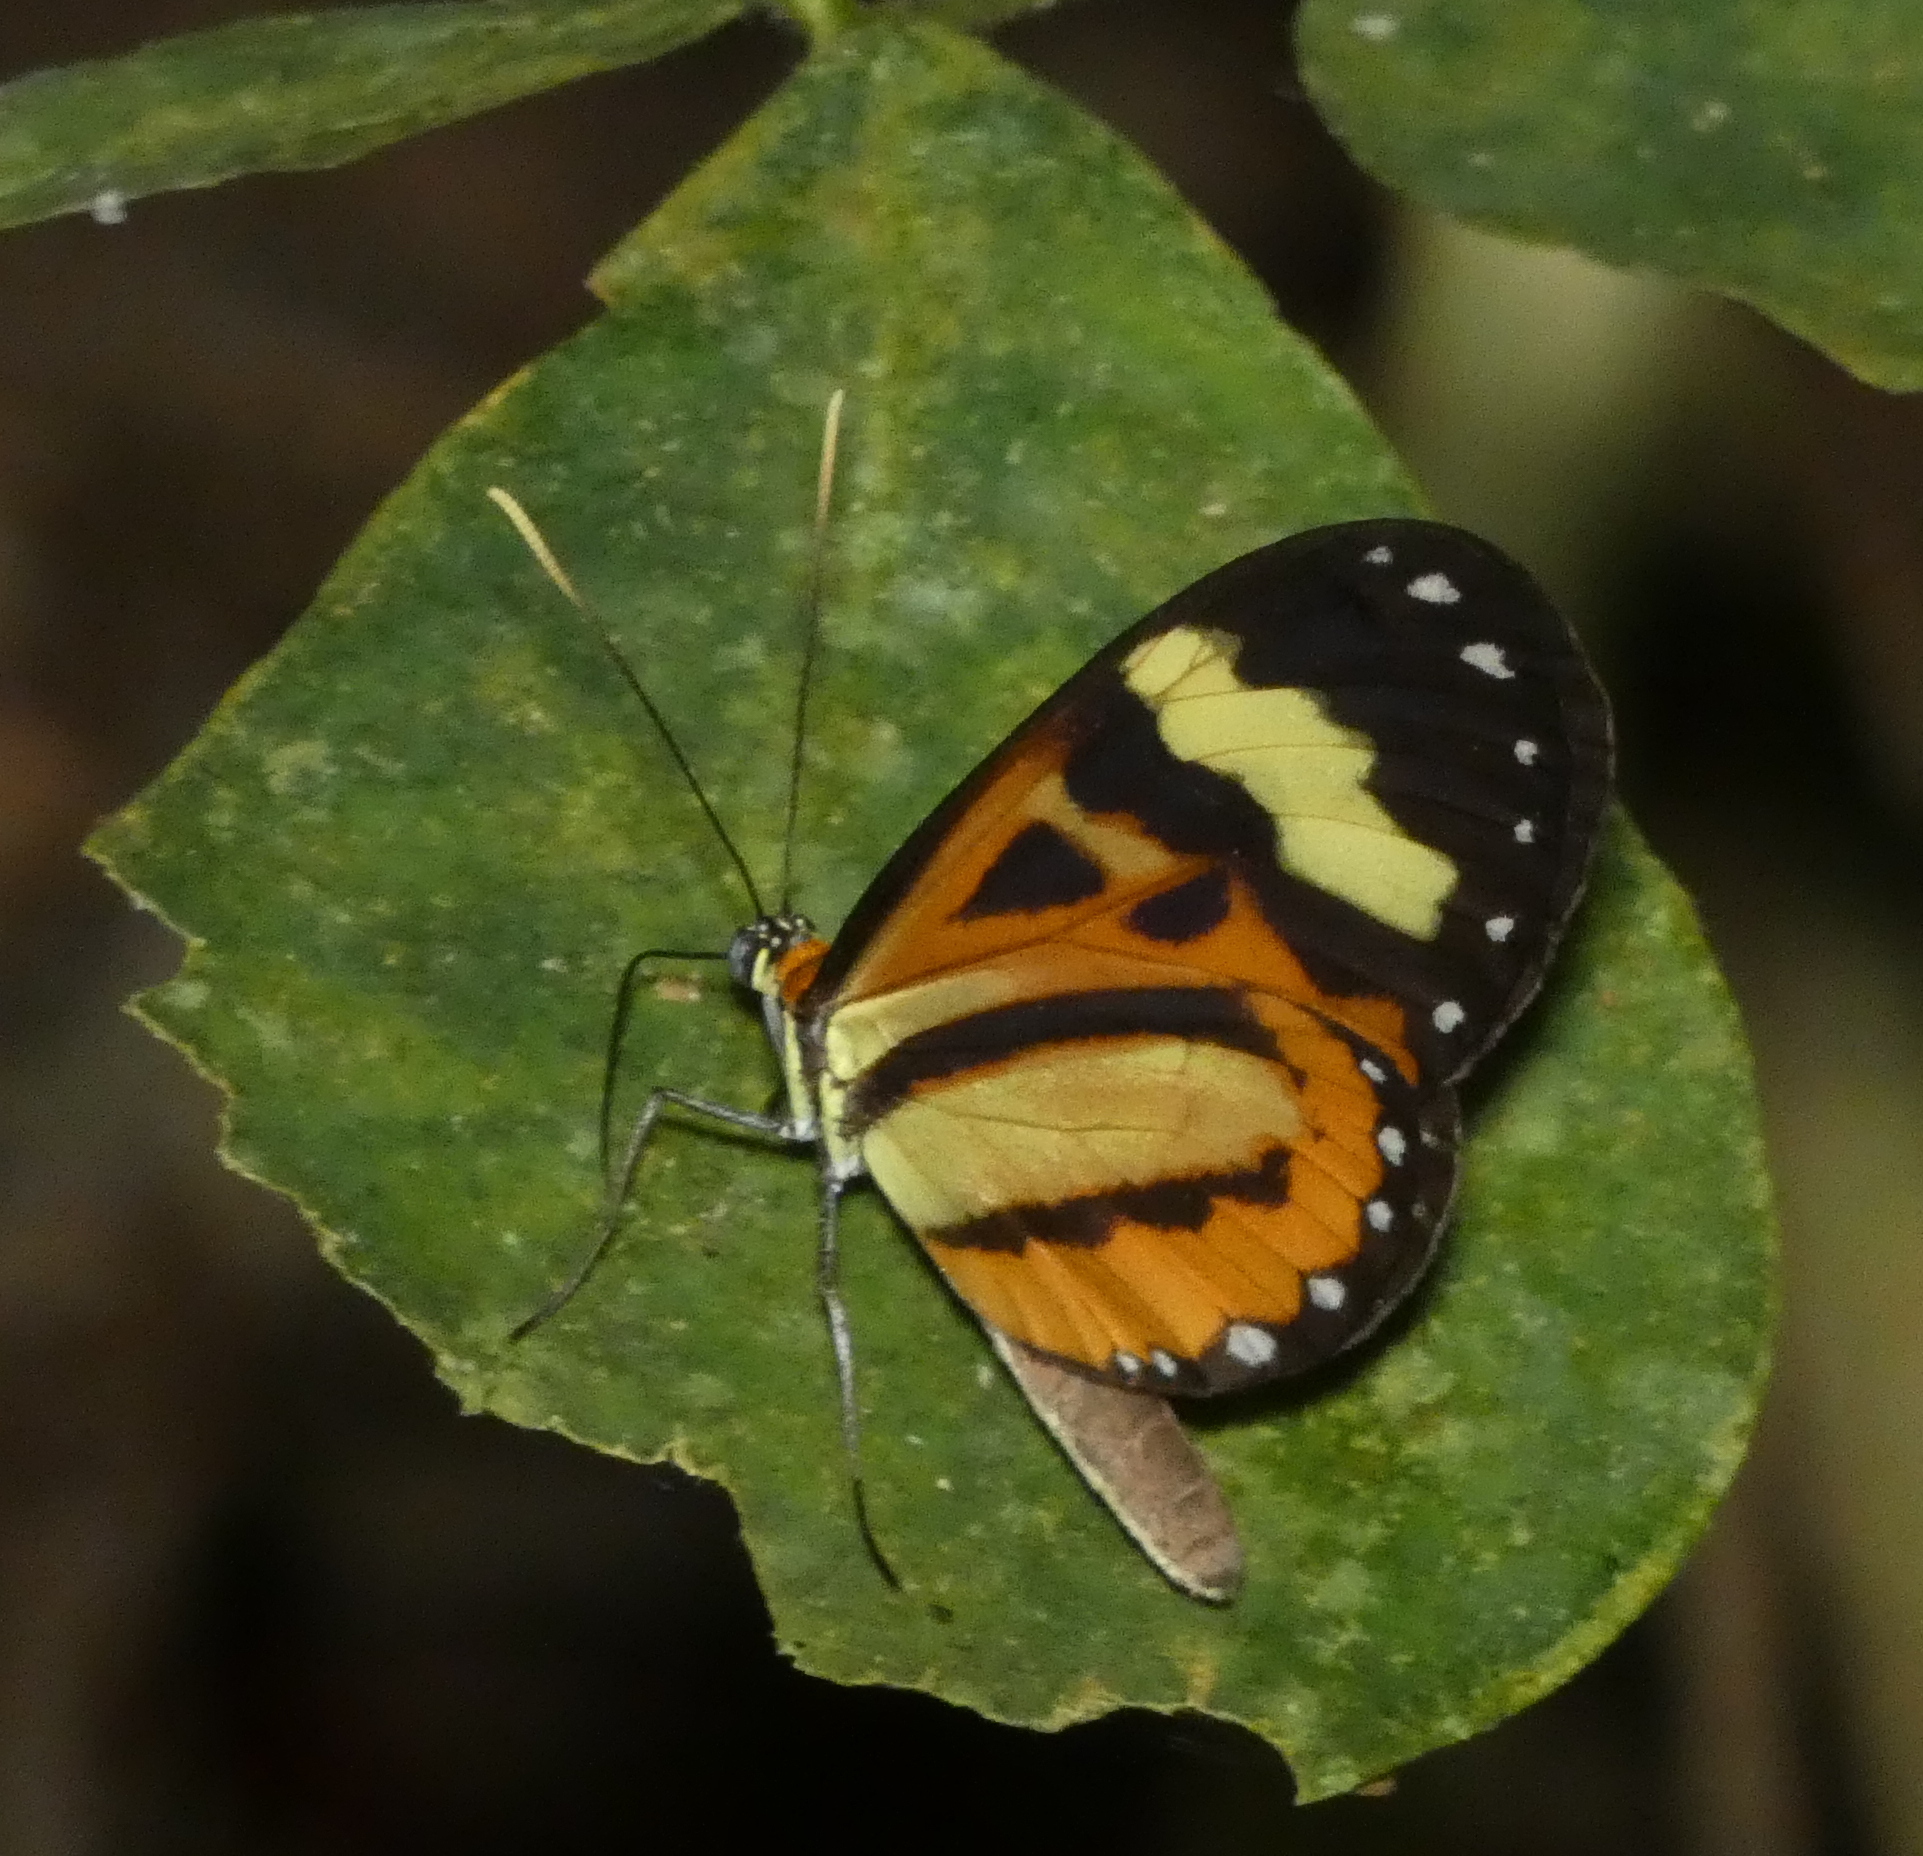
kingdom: Animalia
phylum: Arthropoda
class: Insecta
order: Lepidoptera
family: Nymphalidae
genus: Hypothyris
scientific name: Hypothyris euclea
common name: Euclea tigerwing
